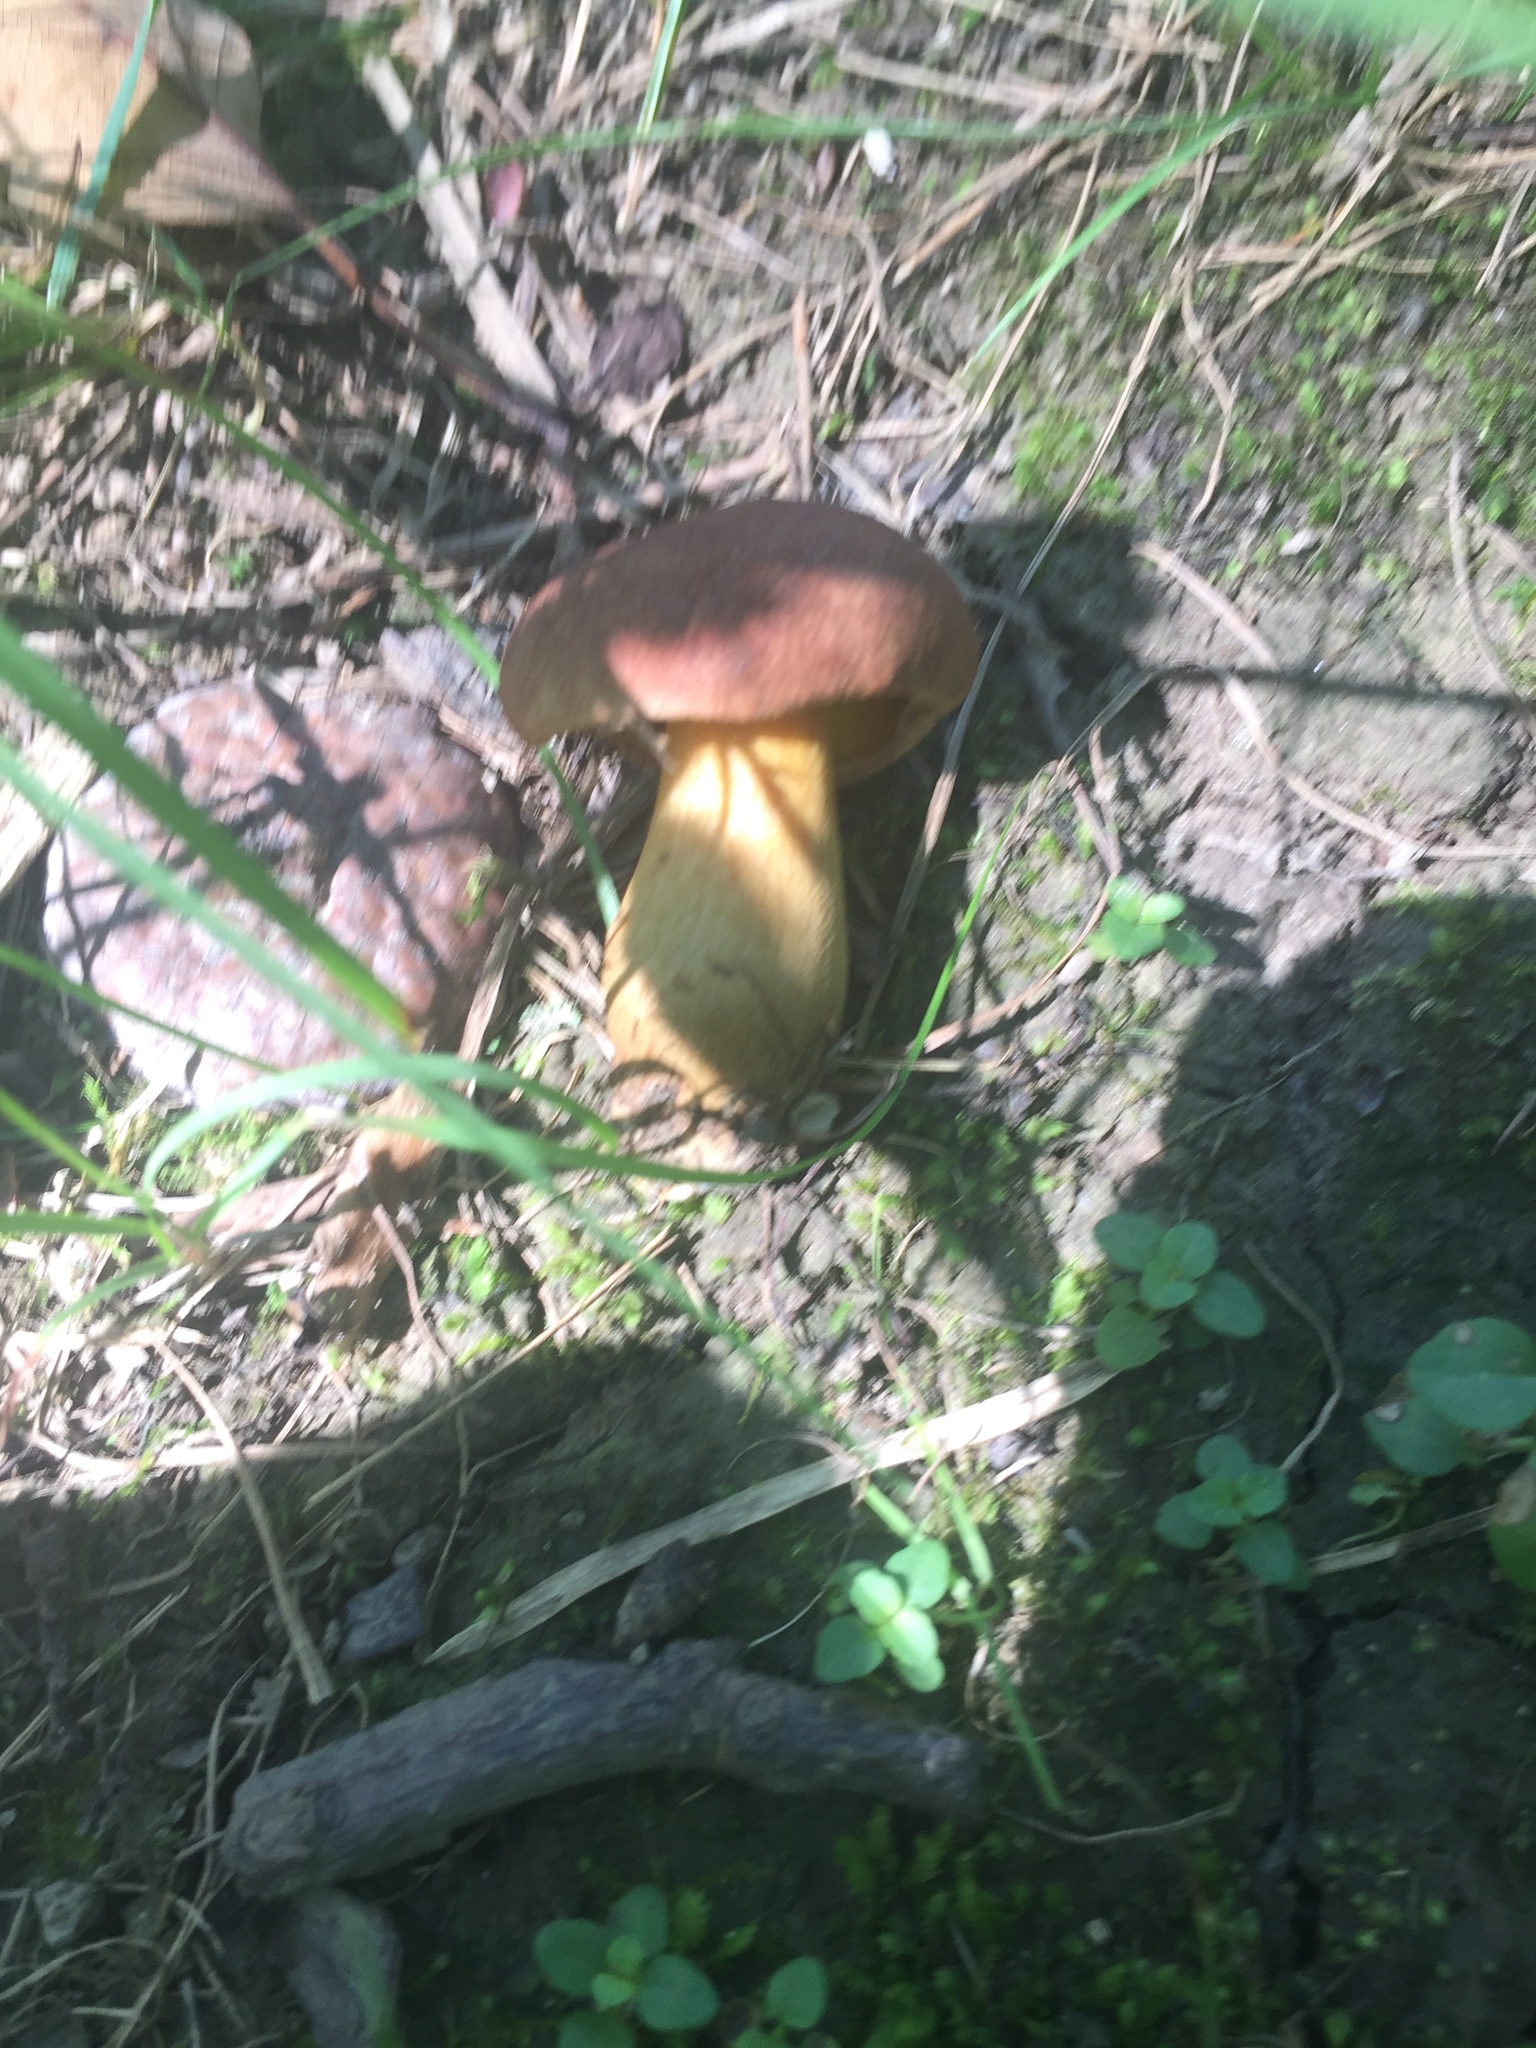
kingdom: Fungi
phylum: Basidiomycota
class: Agaricomycetes
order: Boletales
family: Boletaceae
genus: Aureoboletus
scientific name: Aureoboletus innixus
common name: Clustered brown bolete
